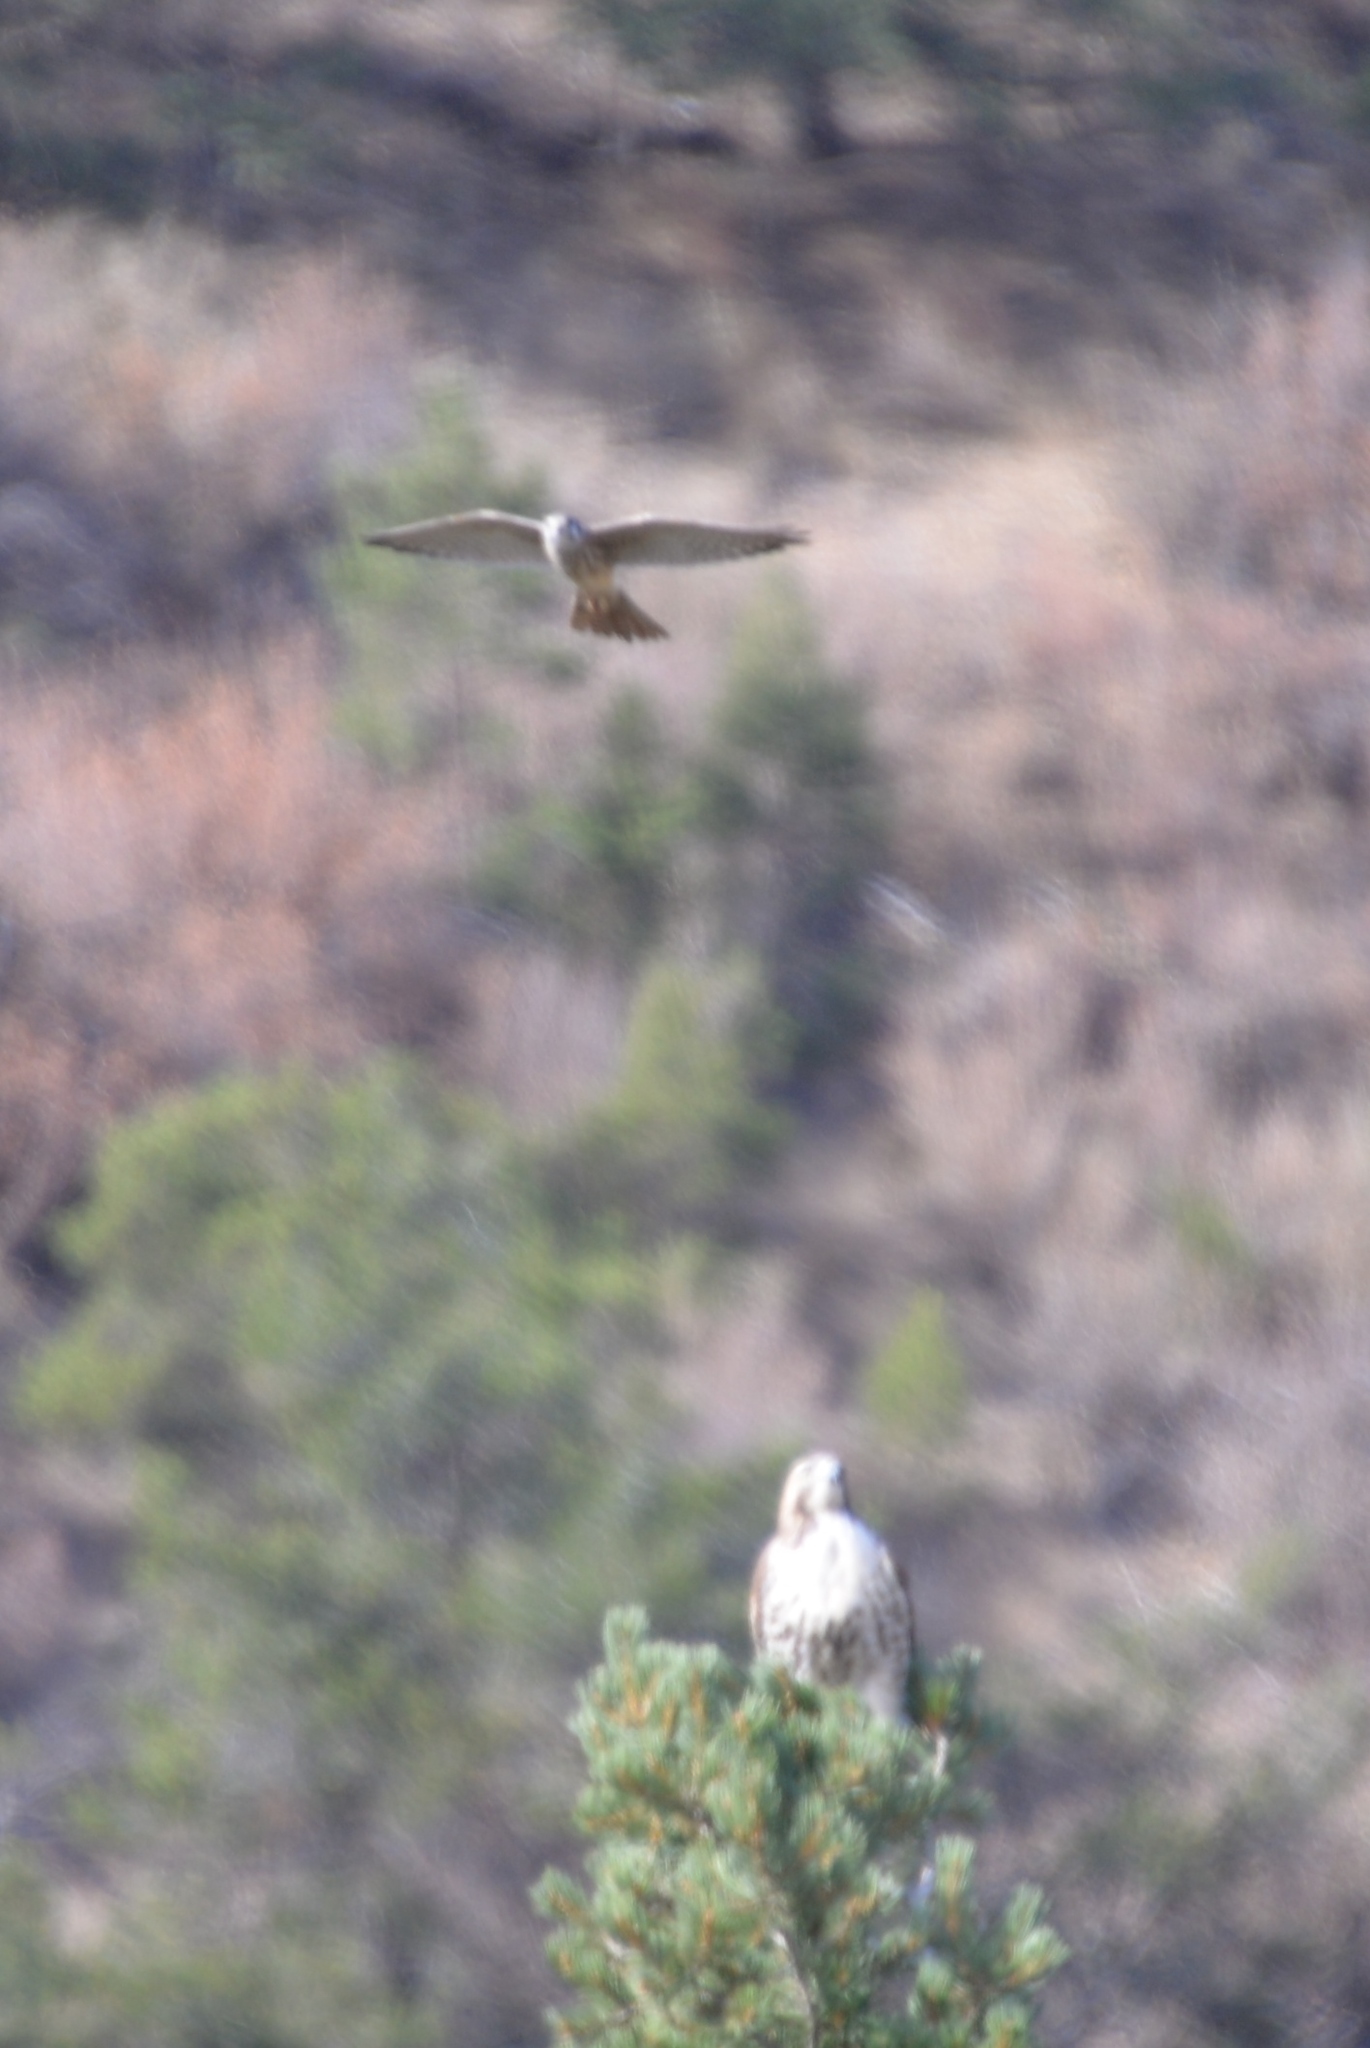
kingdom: Animalia
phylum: Chordata
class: Aves
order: Falconiformes
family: Falconidae
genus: Falco
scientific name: Falco sparverius
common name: American kestrel
